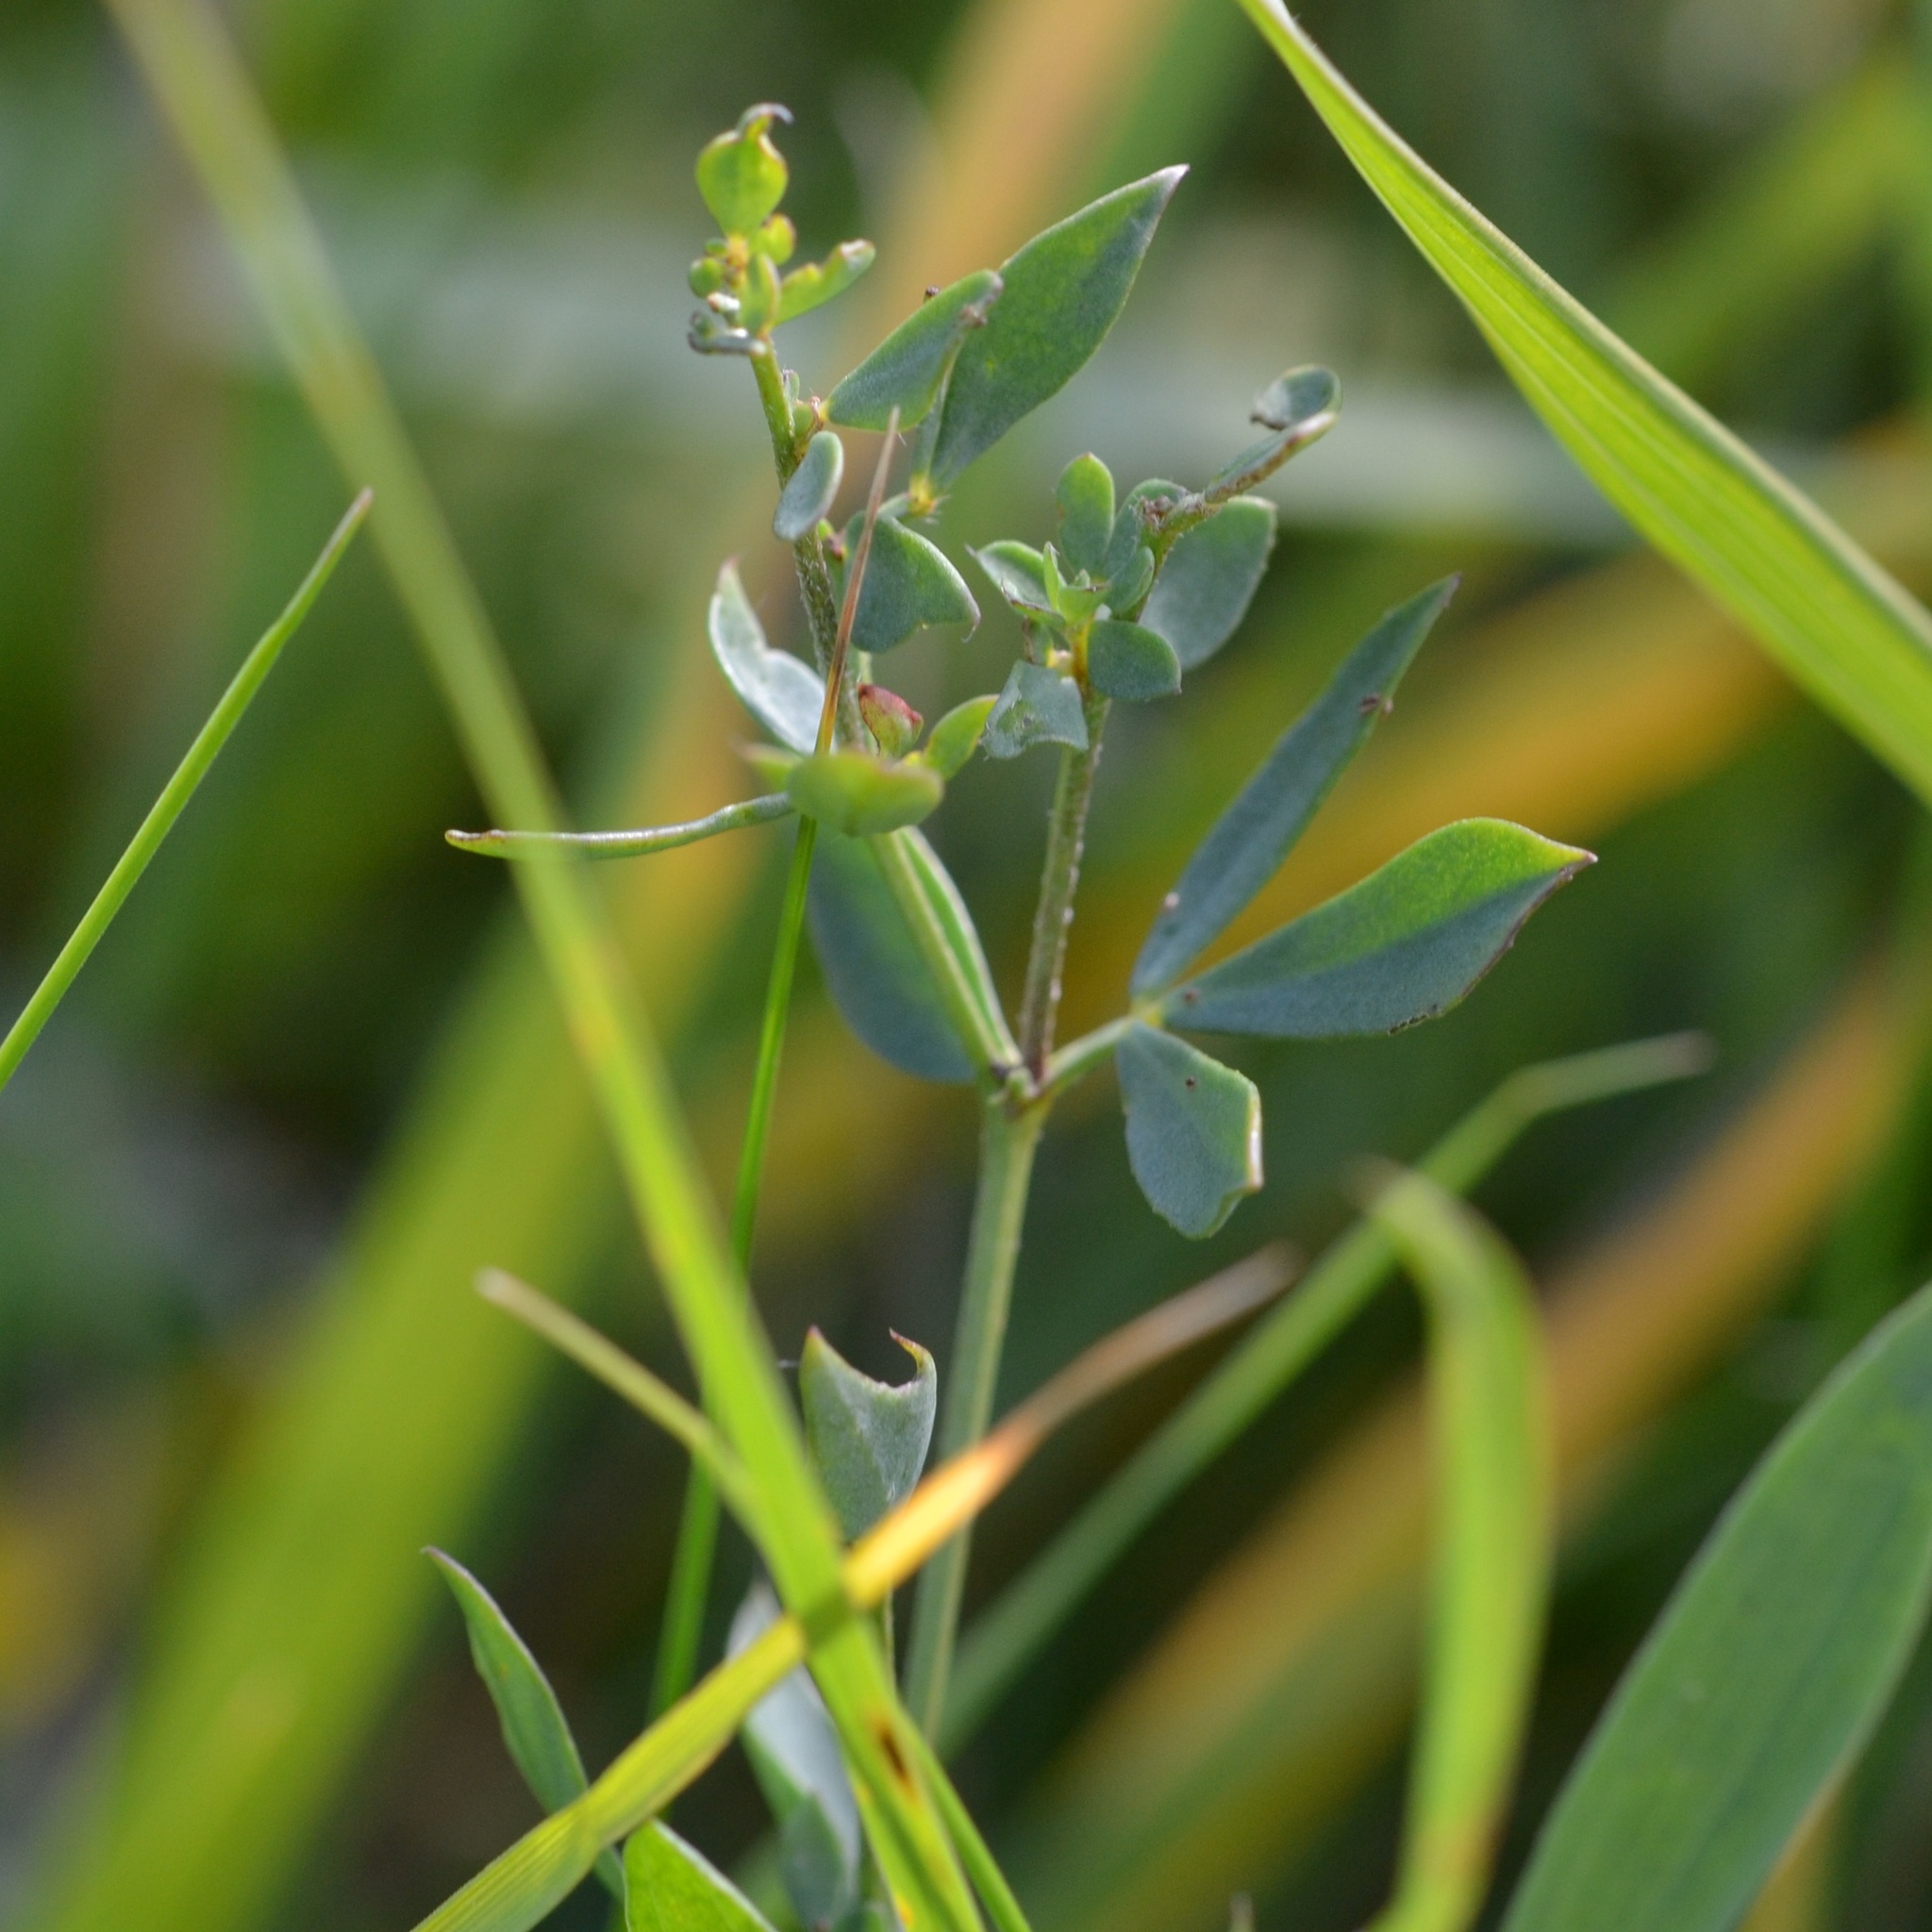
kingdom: Plantae
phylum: Tracheophyta
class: Magnoliopsida
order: Fabales
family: Fabaceae
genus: Lotus
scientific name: Lotus corniculatus
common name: Common bird's-foot-trefoil
